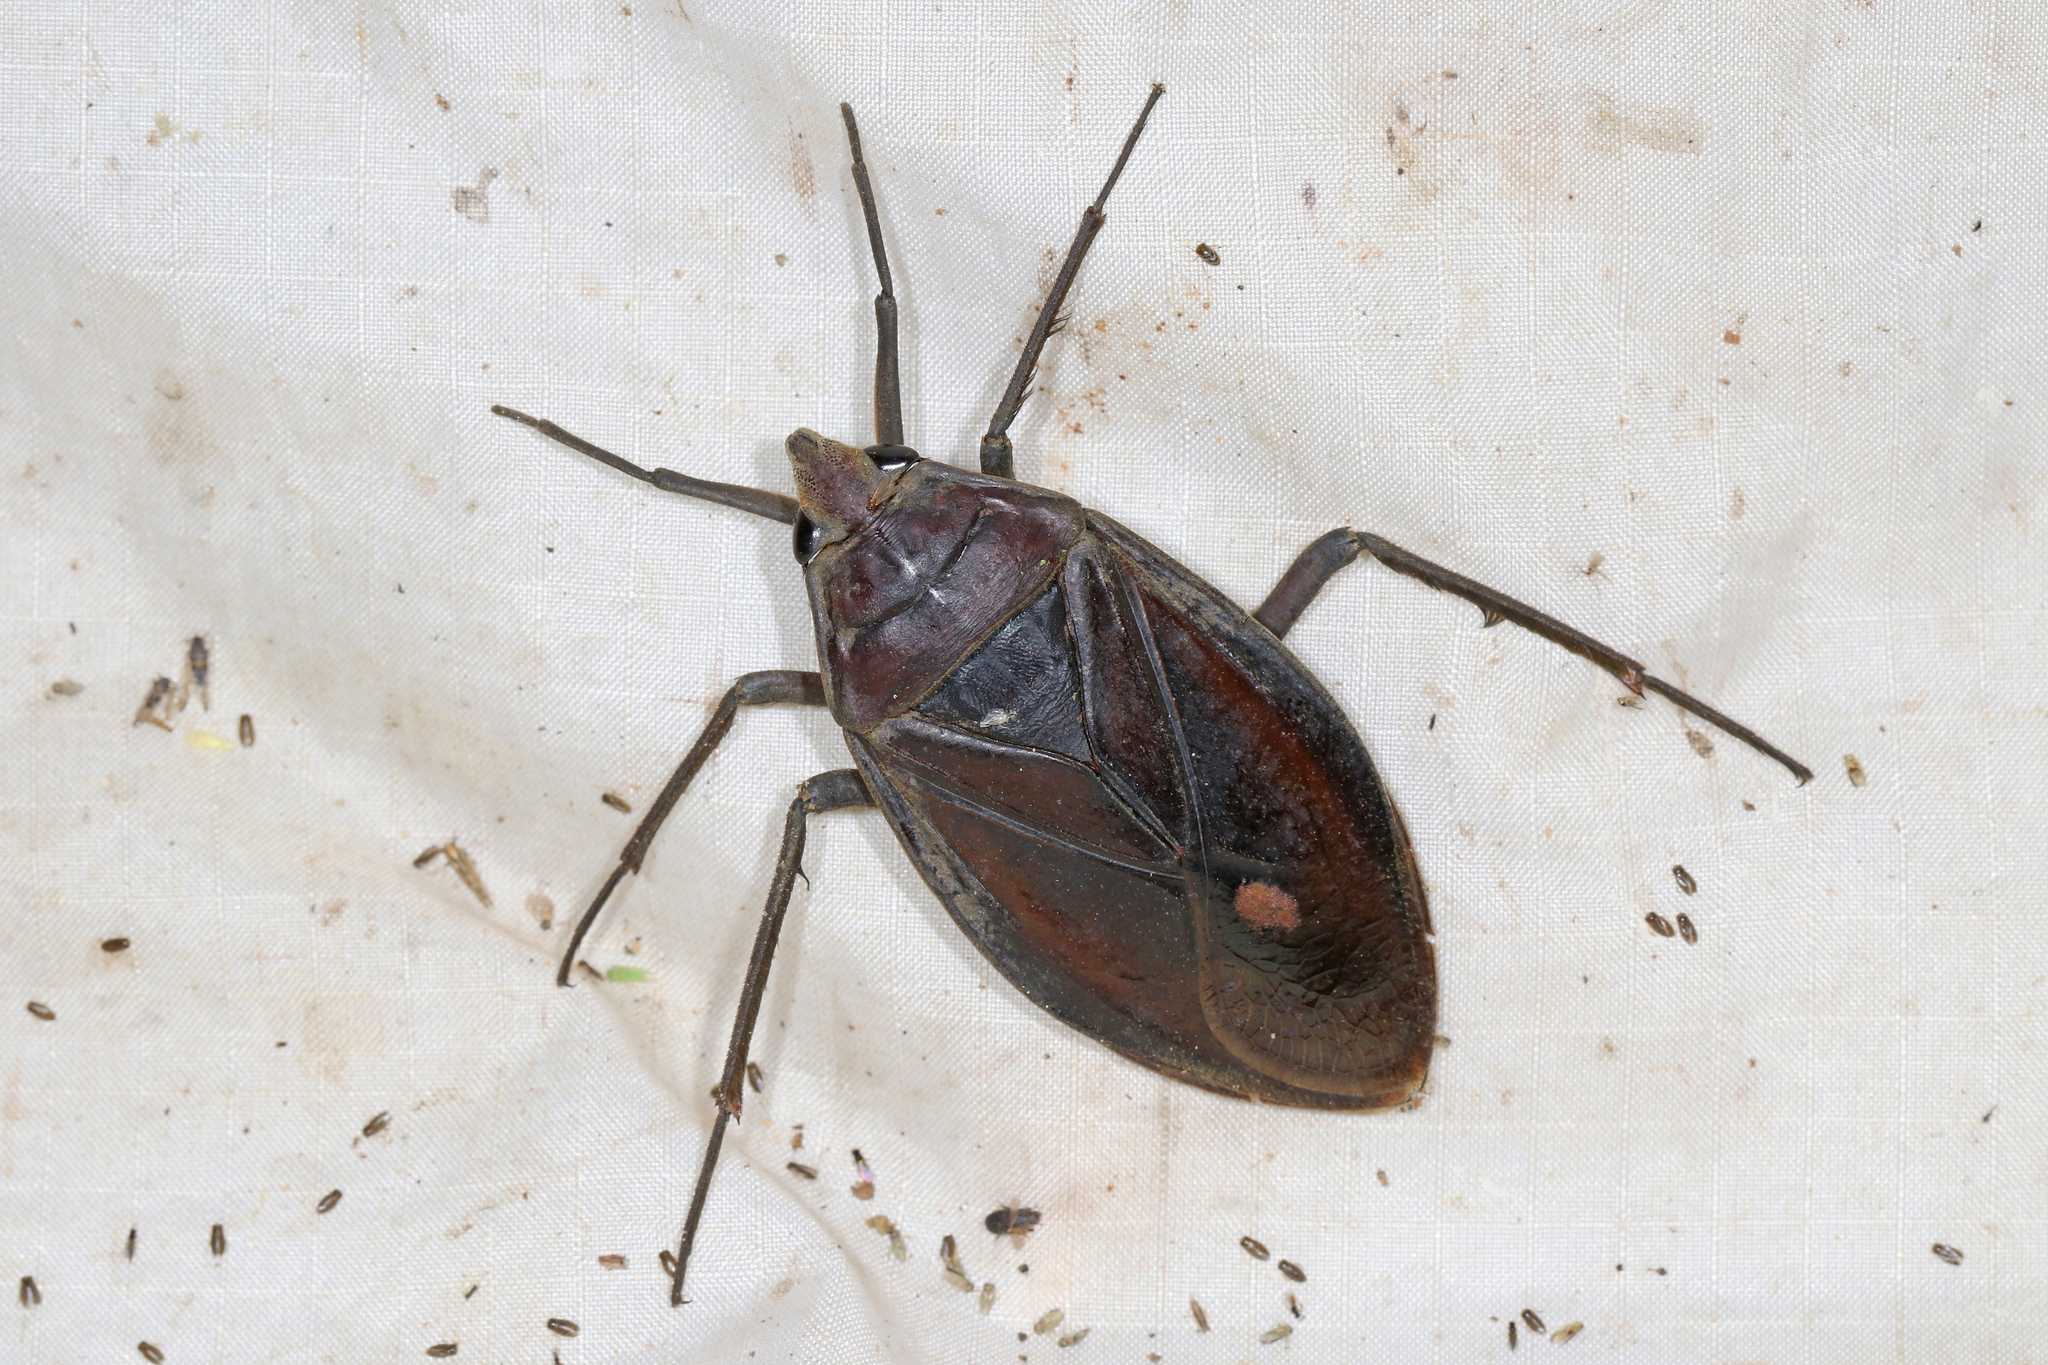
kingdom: Animalia
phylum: Arthropoda
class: Insecta
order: Hemiptera
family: Belostomatidae
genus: Limnogeton
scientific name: Limnogeton fieberi
